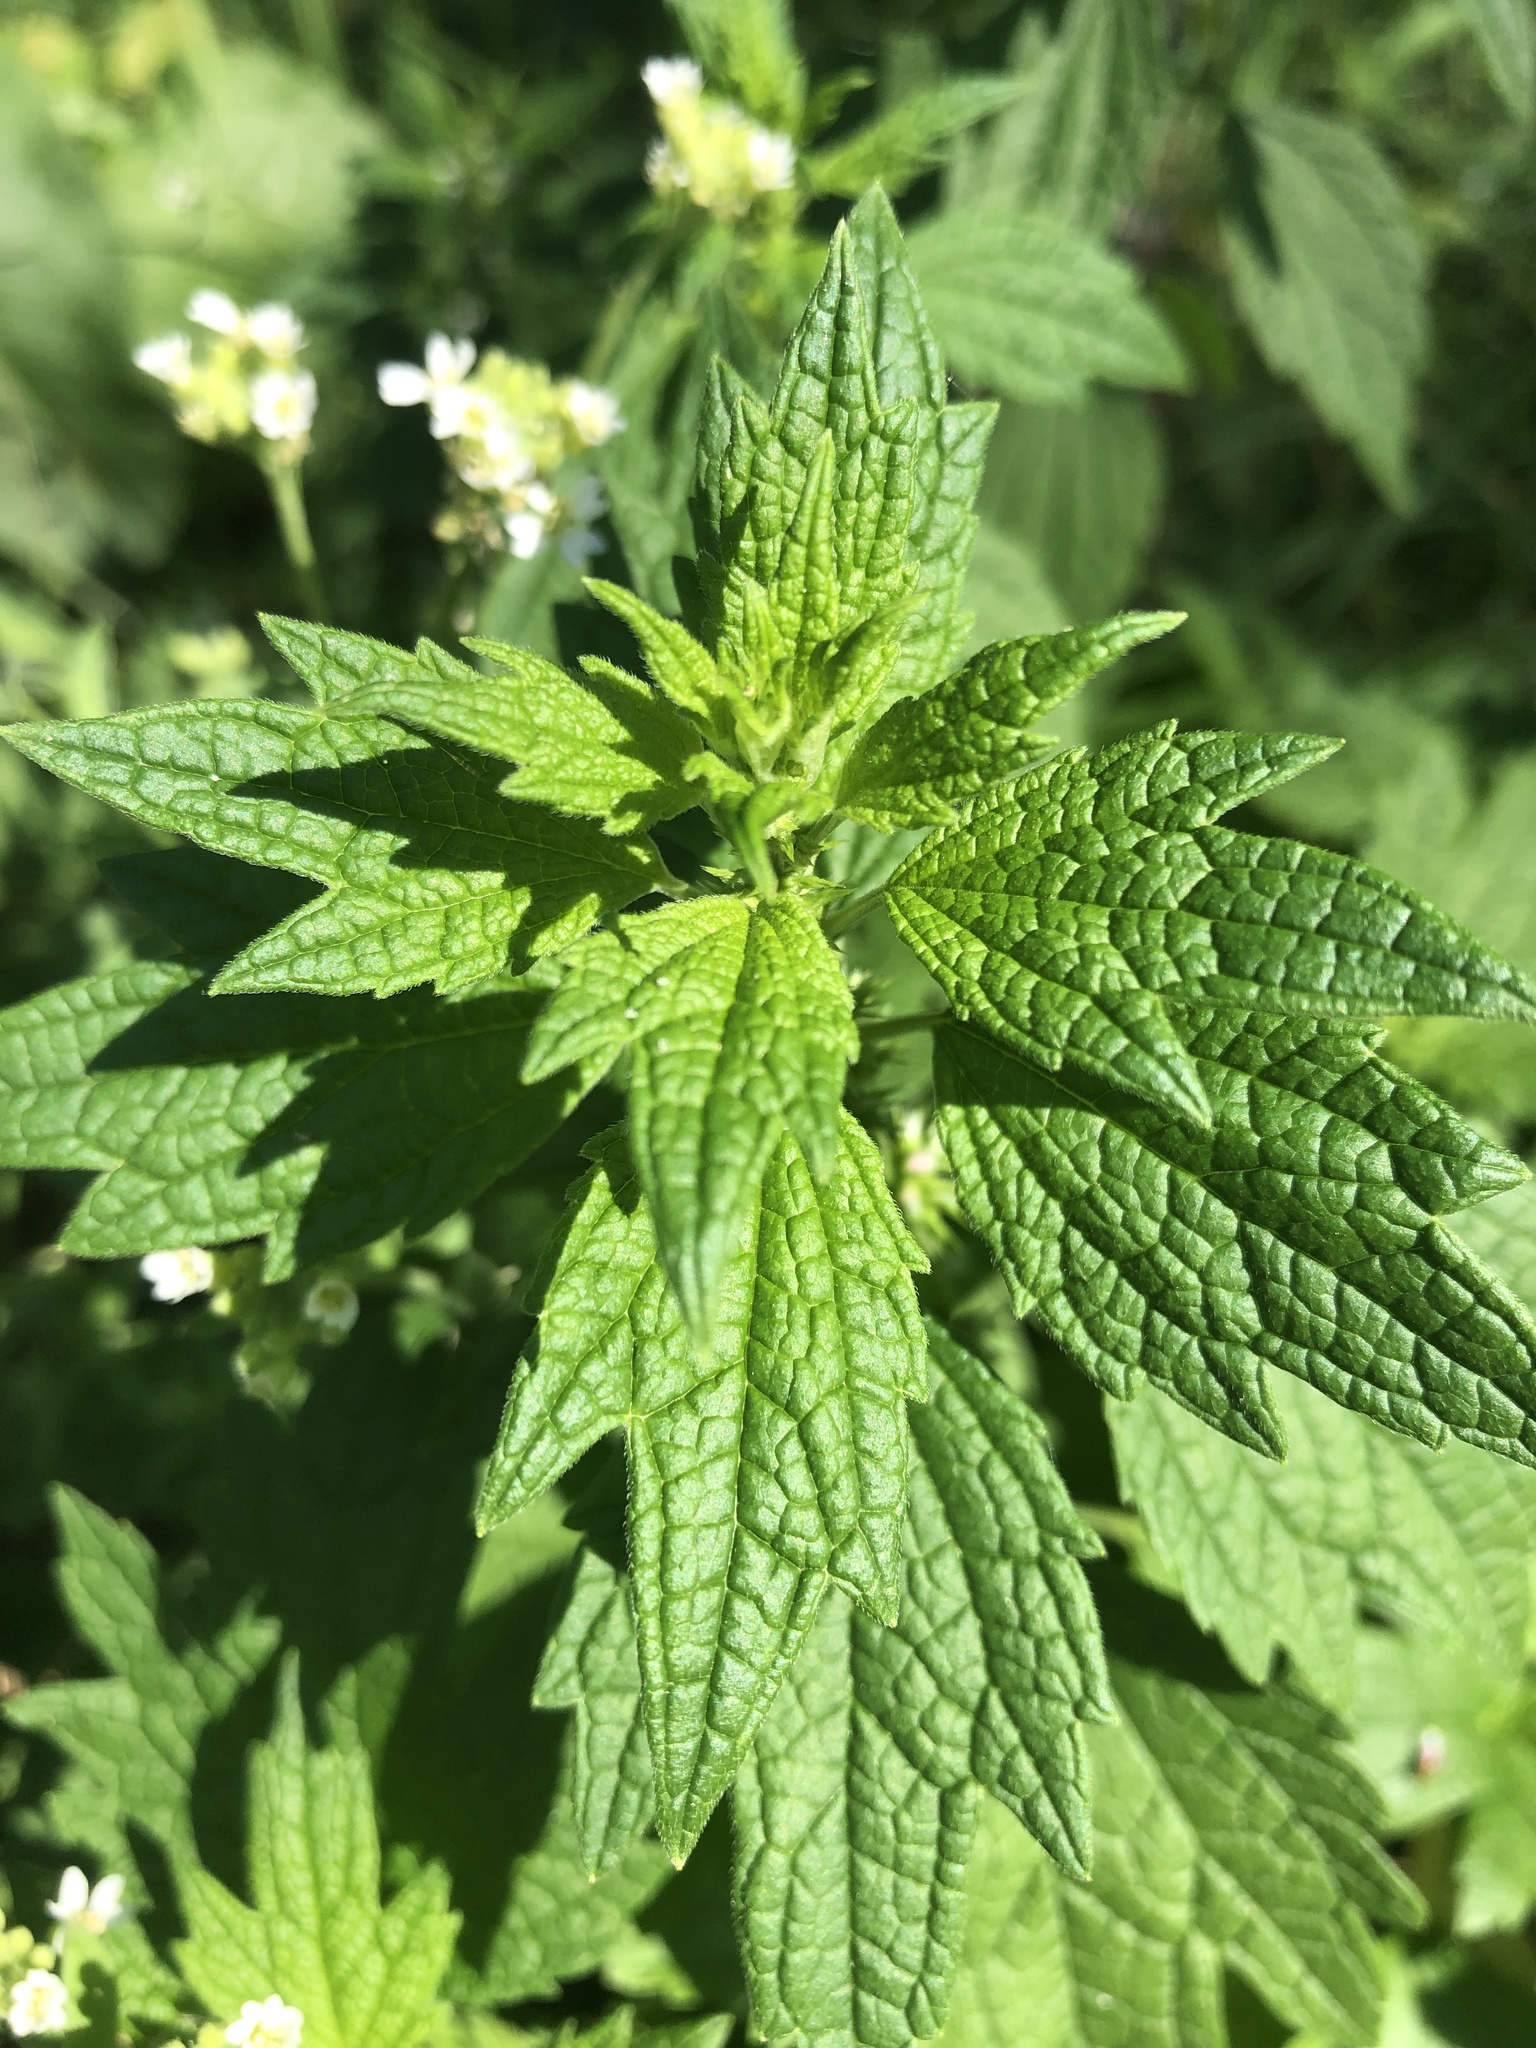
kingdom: Plantae
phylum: Tracheophyta
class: Magnoliopsida
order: Lamiales
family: Lamiaceae
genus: Leonurus
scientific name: Leonurus cardiaca
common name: Motherwort
